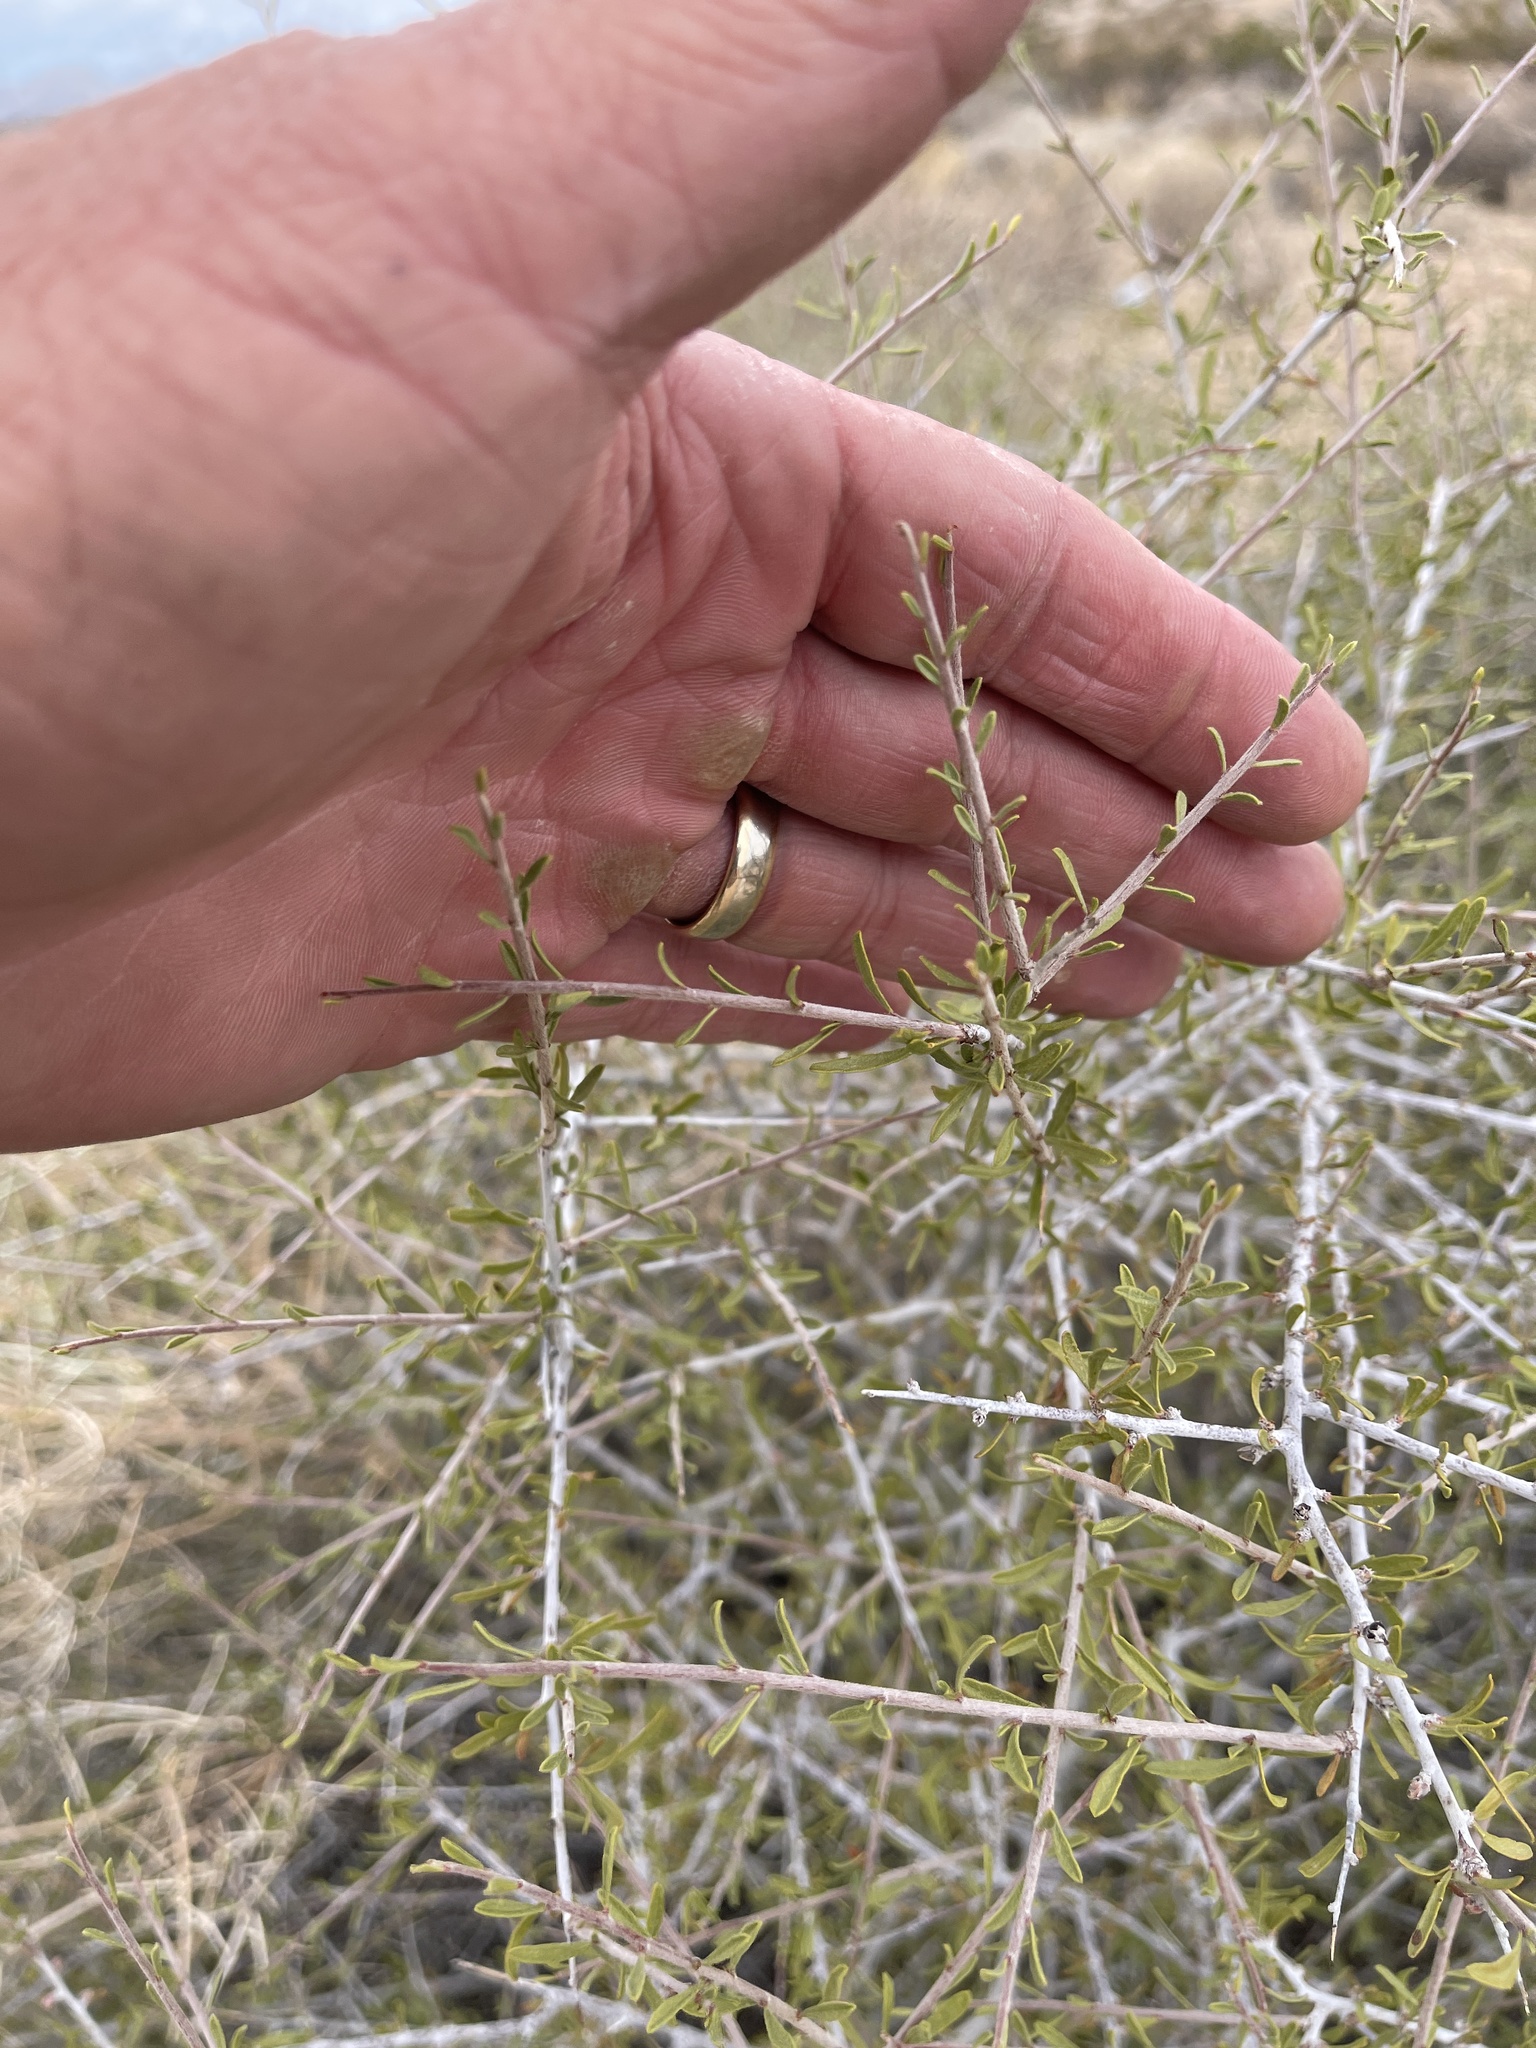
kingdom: Plantae
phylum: Tracheophyta
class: Magnoliopsida
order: Rosales
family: Rosaceae
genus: Prunus
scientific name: Prunus fasciculata
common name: Desert almond
